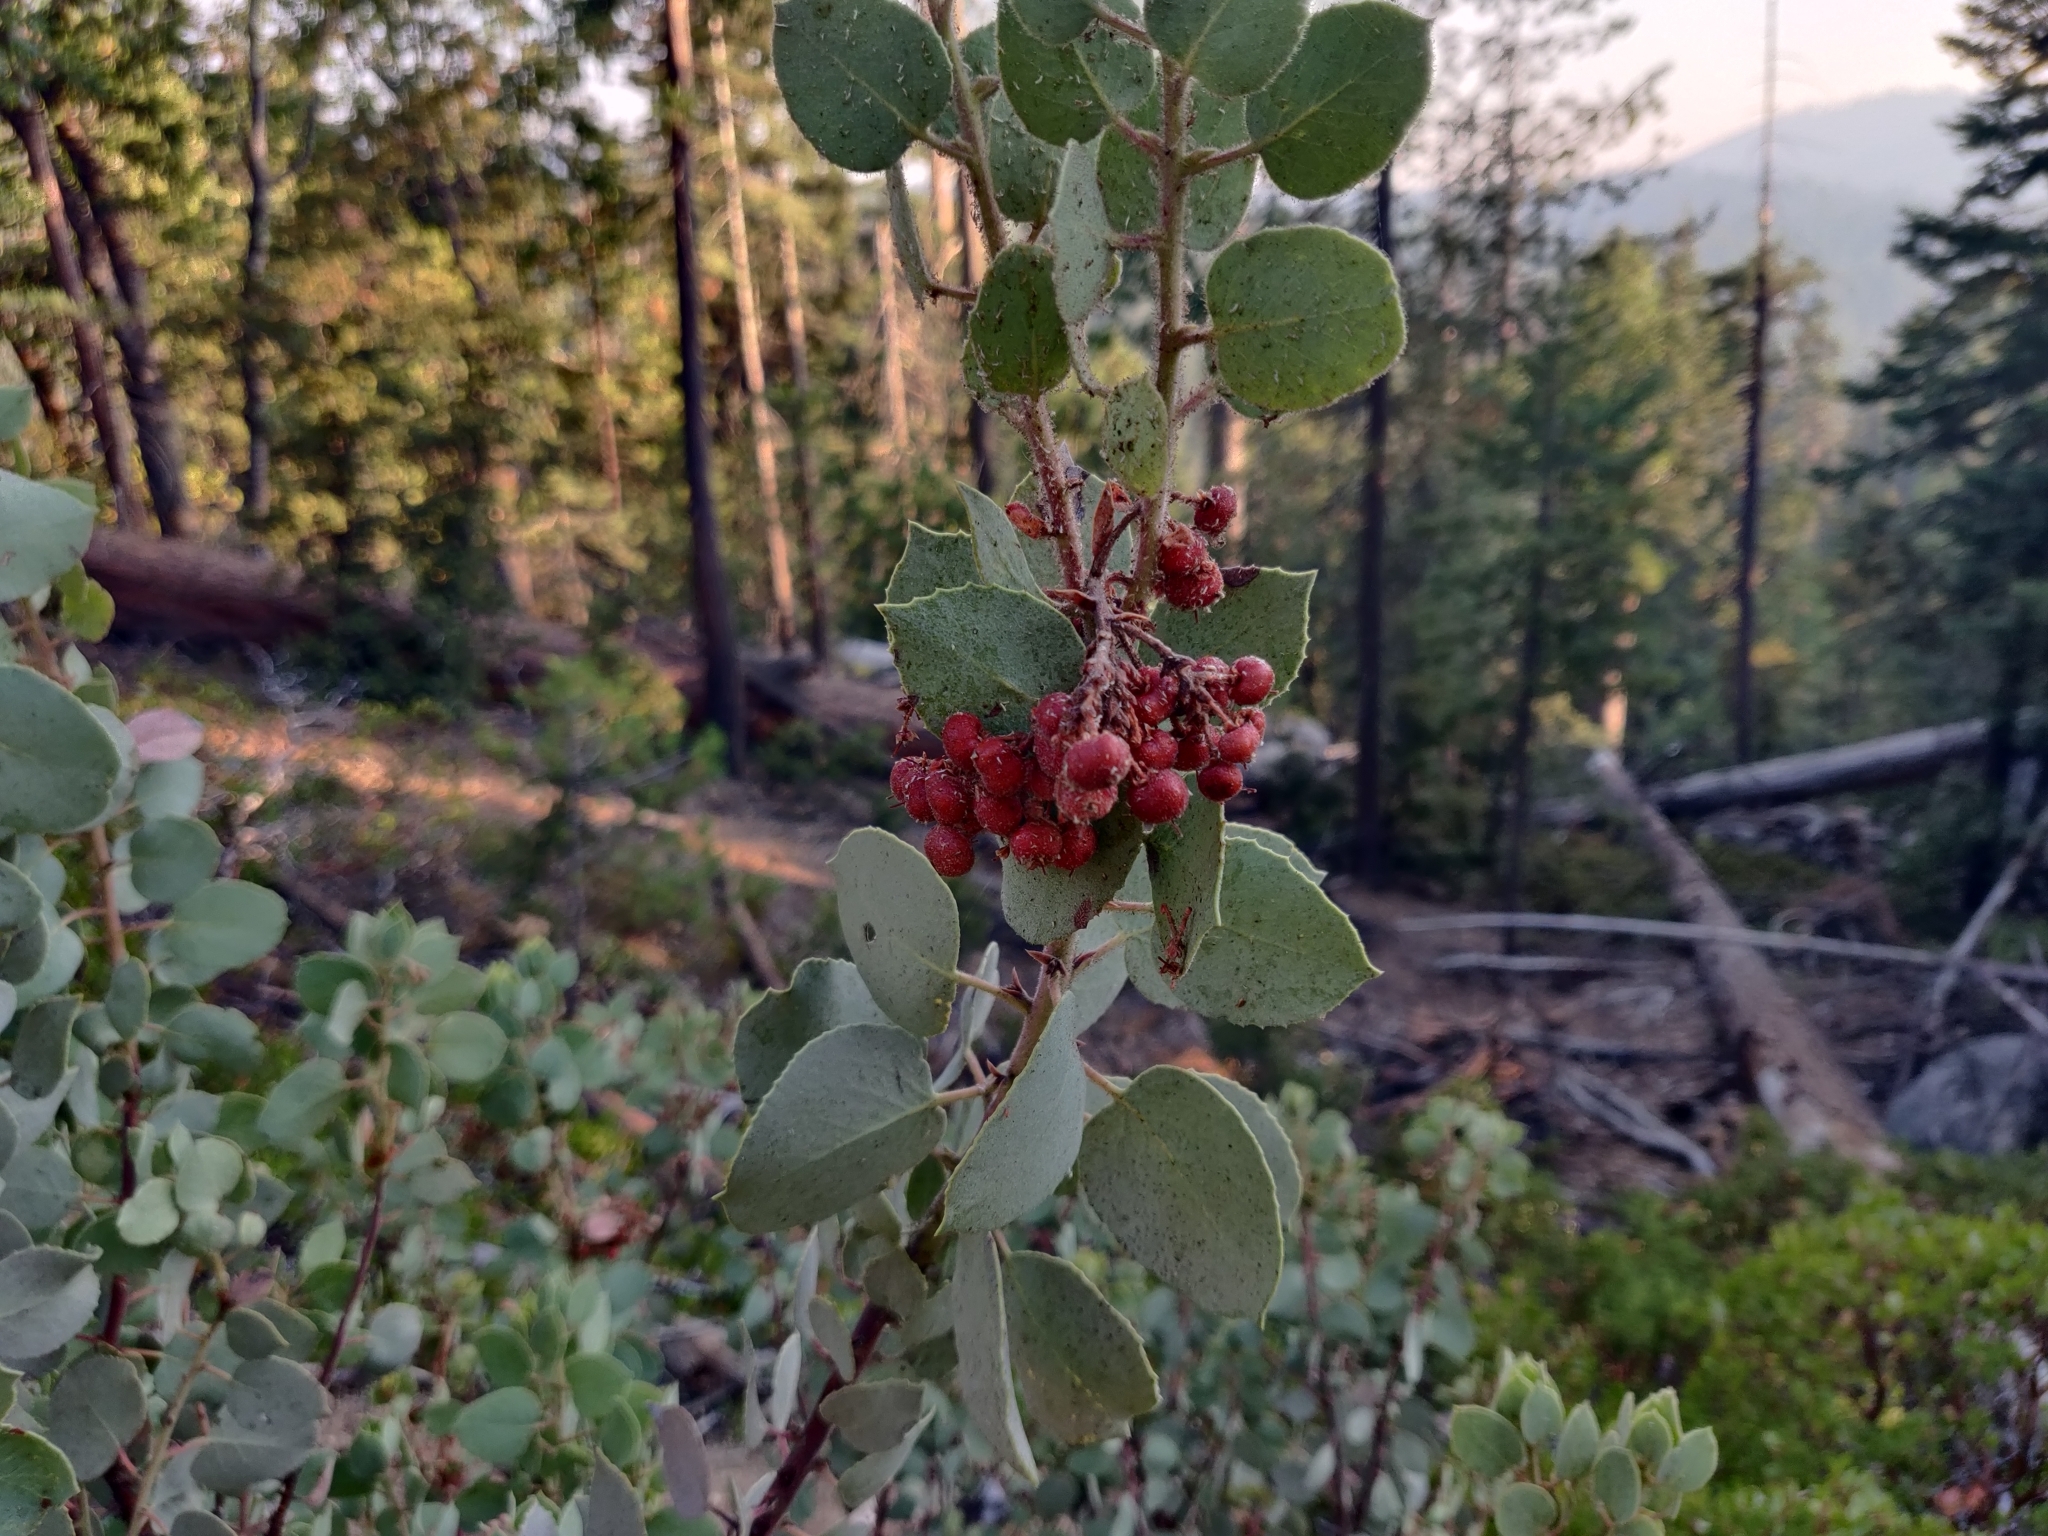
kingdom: Plantae
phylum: Tracheophyta
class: Magnoliopsida
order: Ericales
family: Ericaceae
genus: Arctostaphylos
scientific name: Arctostaphylos viscida
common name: White-leaf manzanita
